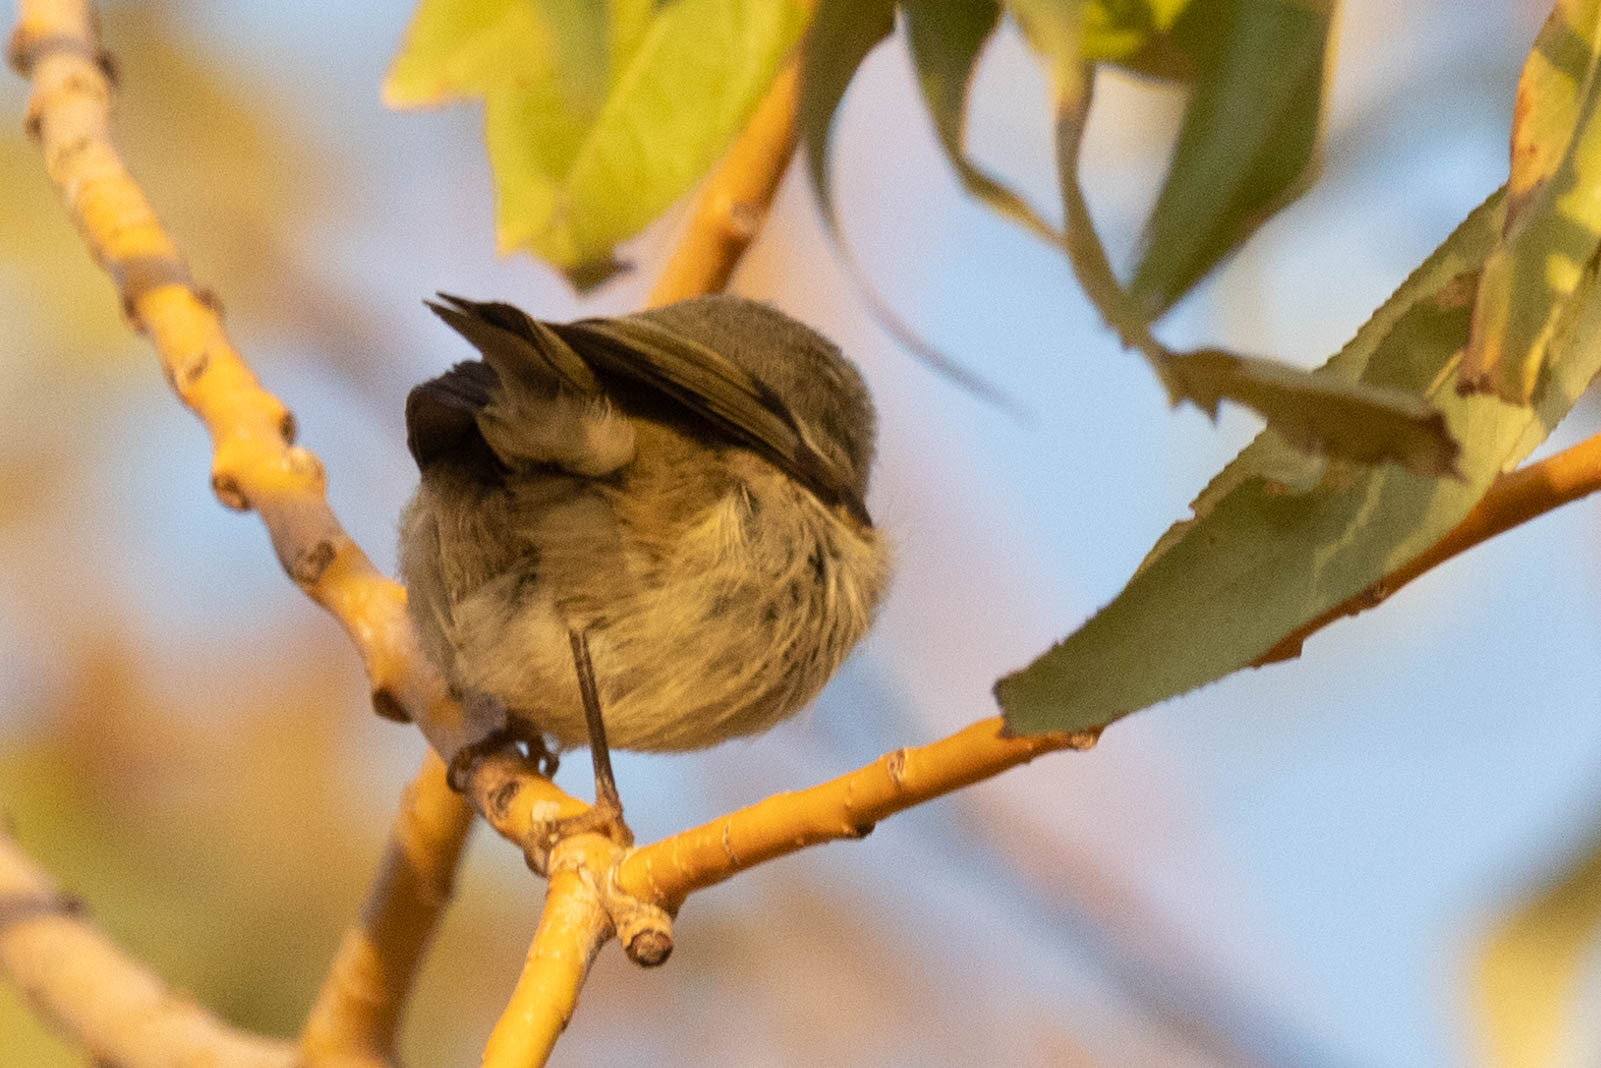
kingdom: Animalia
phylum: Chordata
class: Aves
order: Passeriformes
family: Regulidae
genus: Regulus
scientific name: Regulus calendula
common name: Ruby-crowned kinglet
